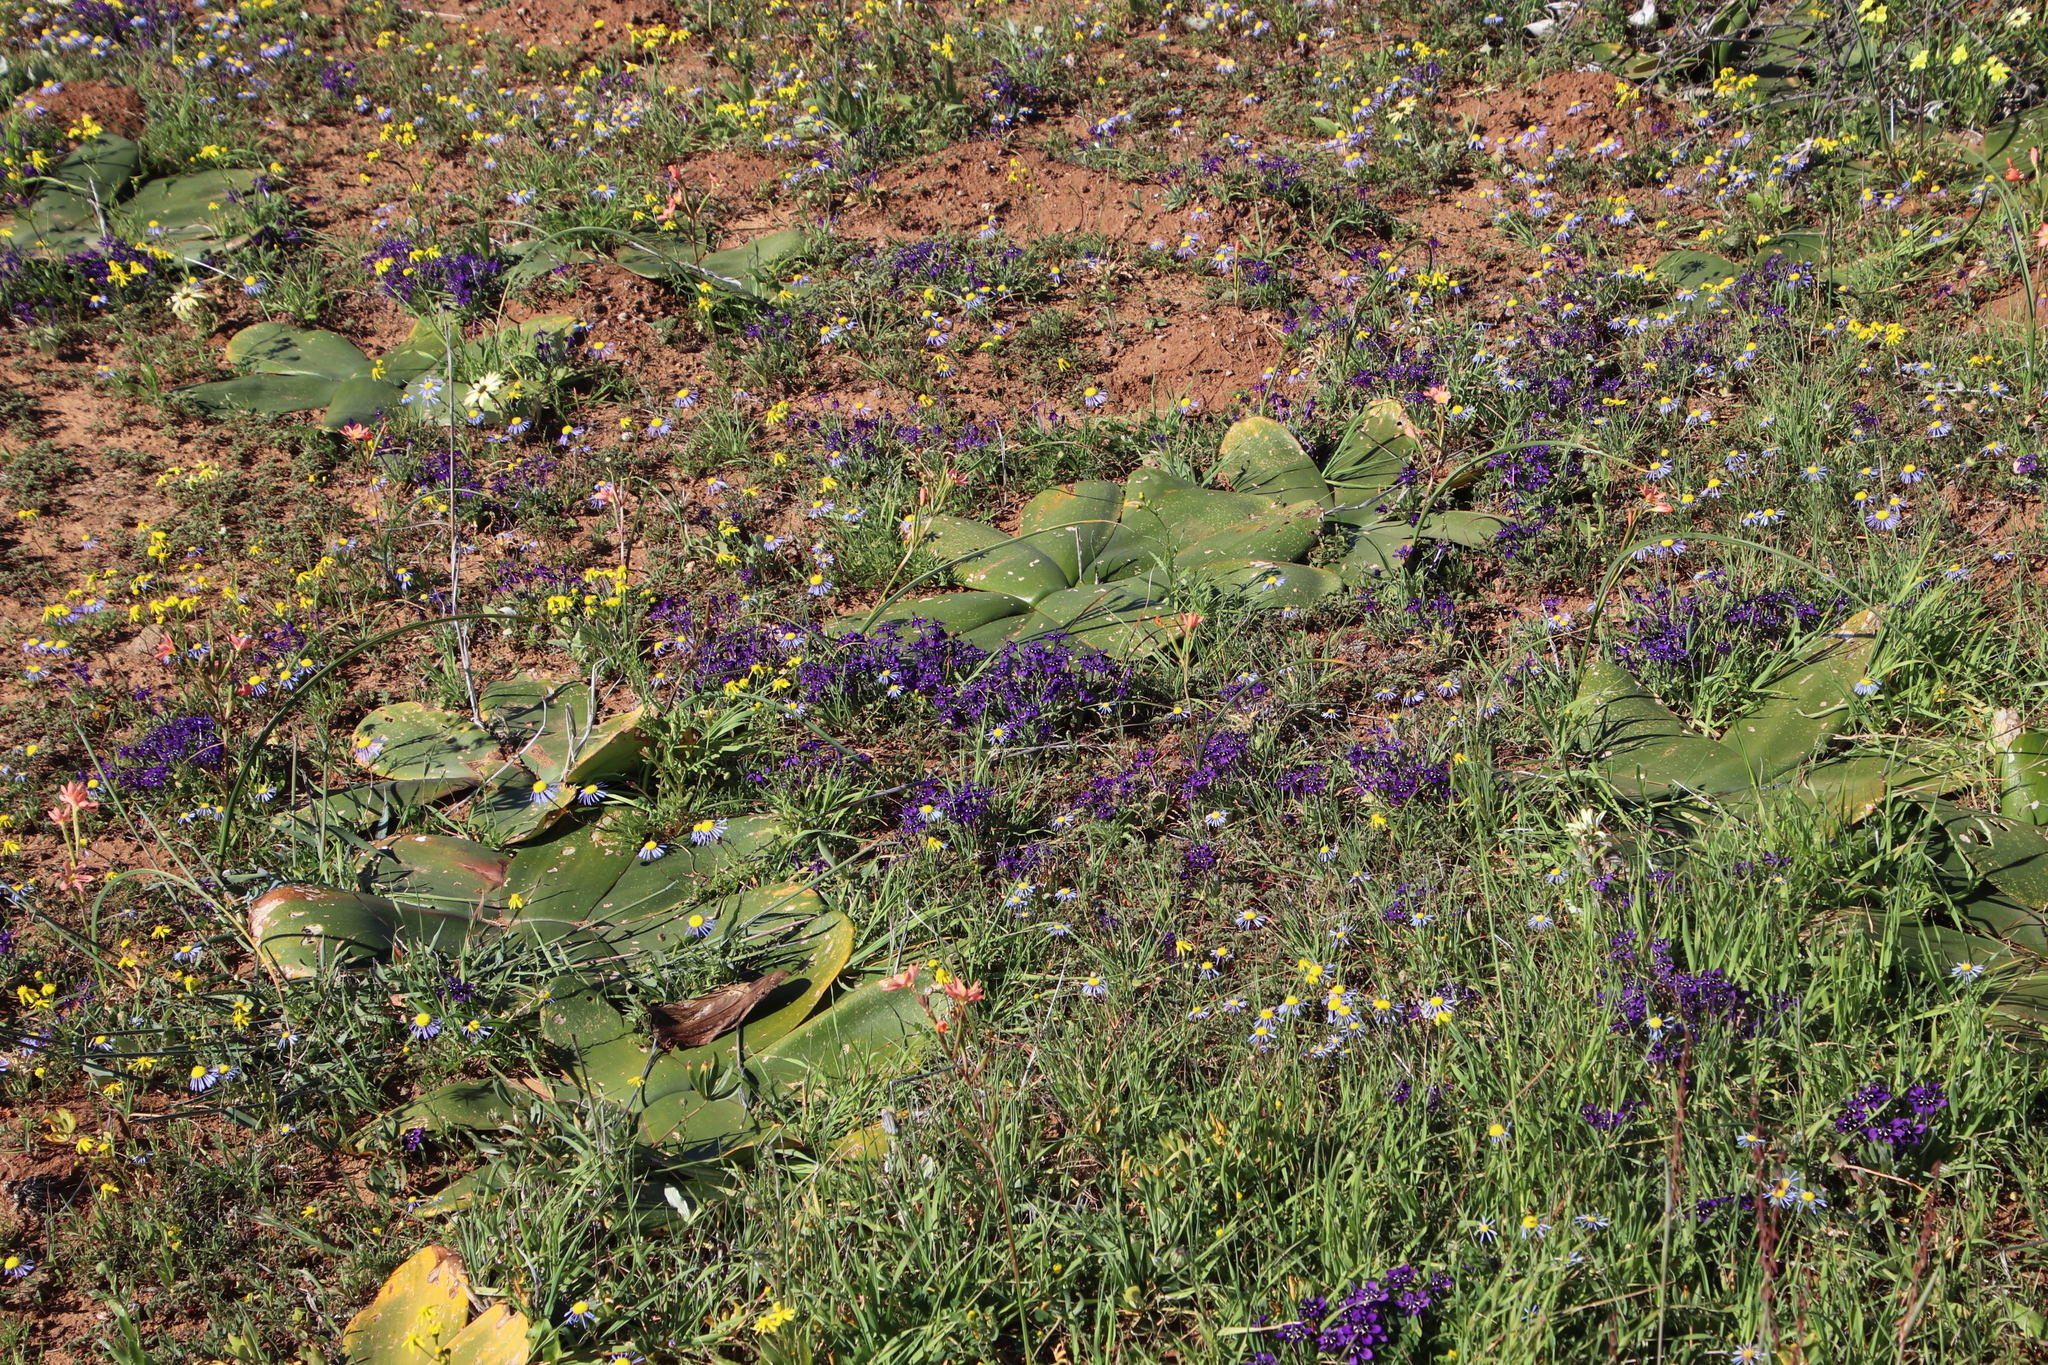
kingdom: Plantae
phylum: Tracheophyta
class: Liliopsida
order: Asparagales
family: Iridaceae
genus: Lapeirousia
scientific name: Lapeirousia oreogena
